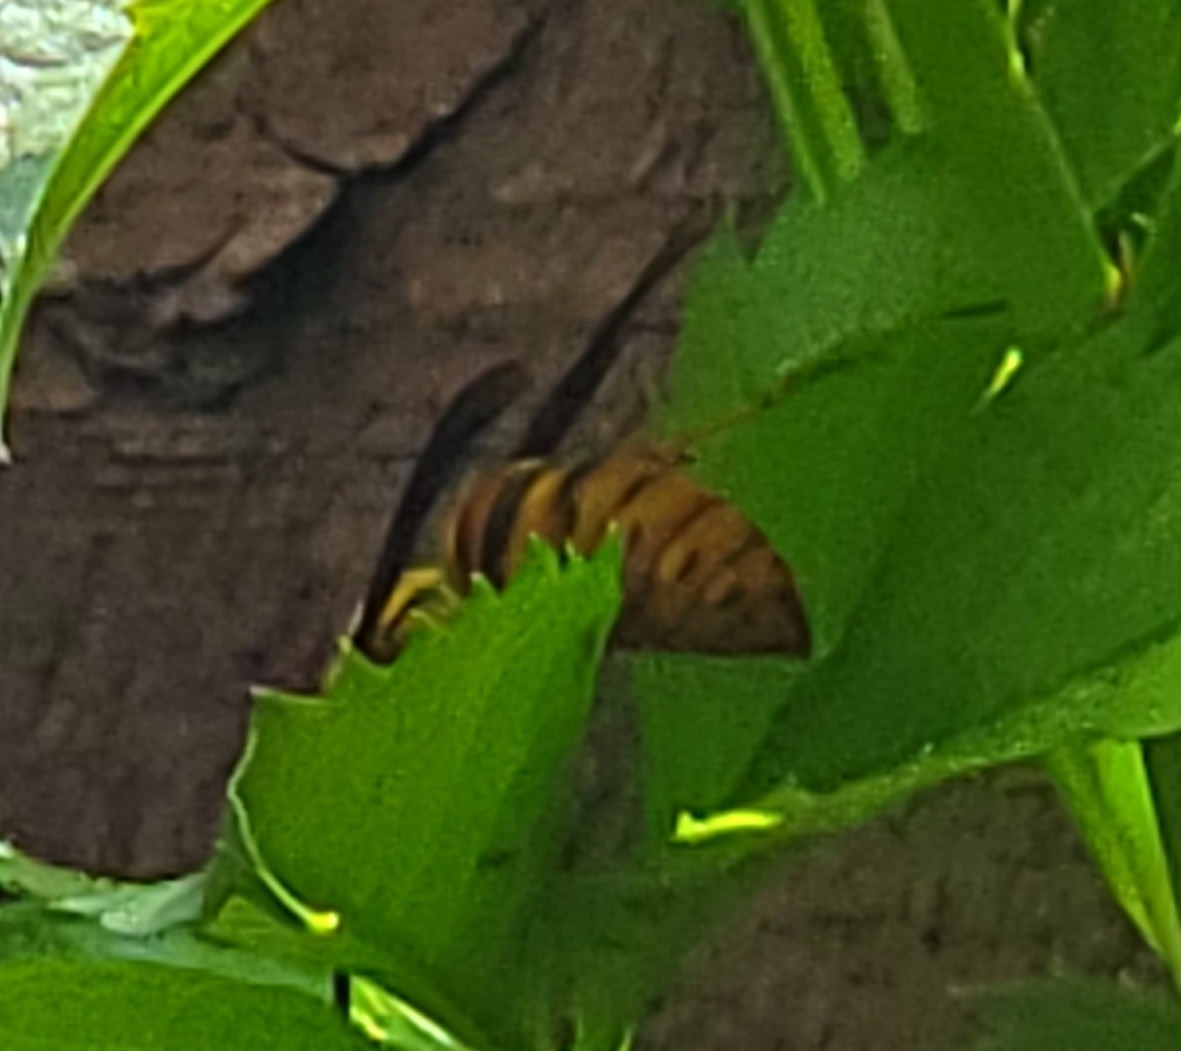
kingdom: Animalia
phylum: Arthropoda
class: Insecta
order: Hymenoptera
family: Vespidae
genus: Vespula
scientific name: Vespula squamosa
